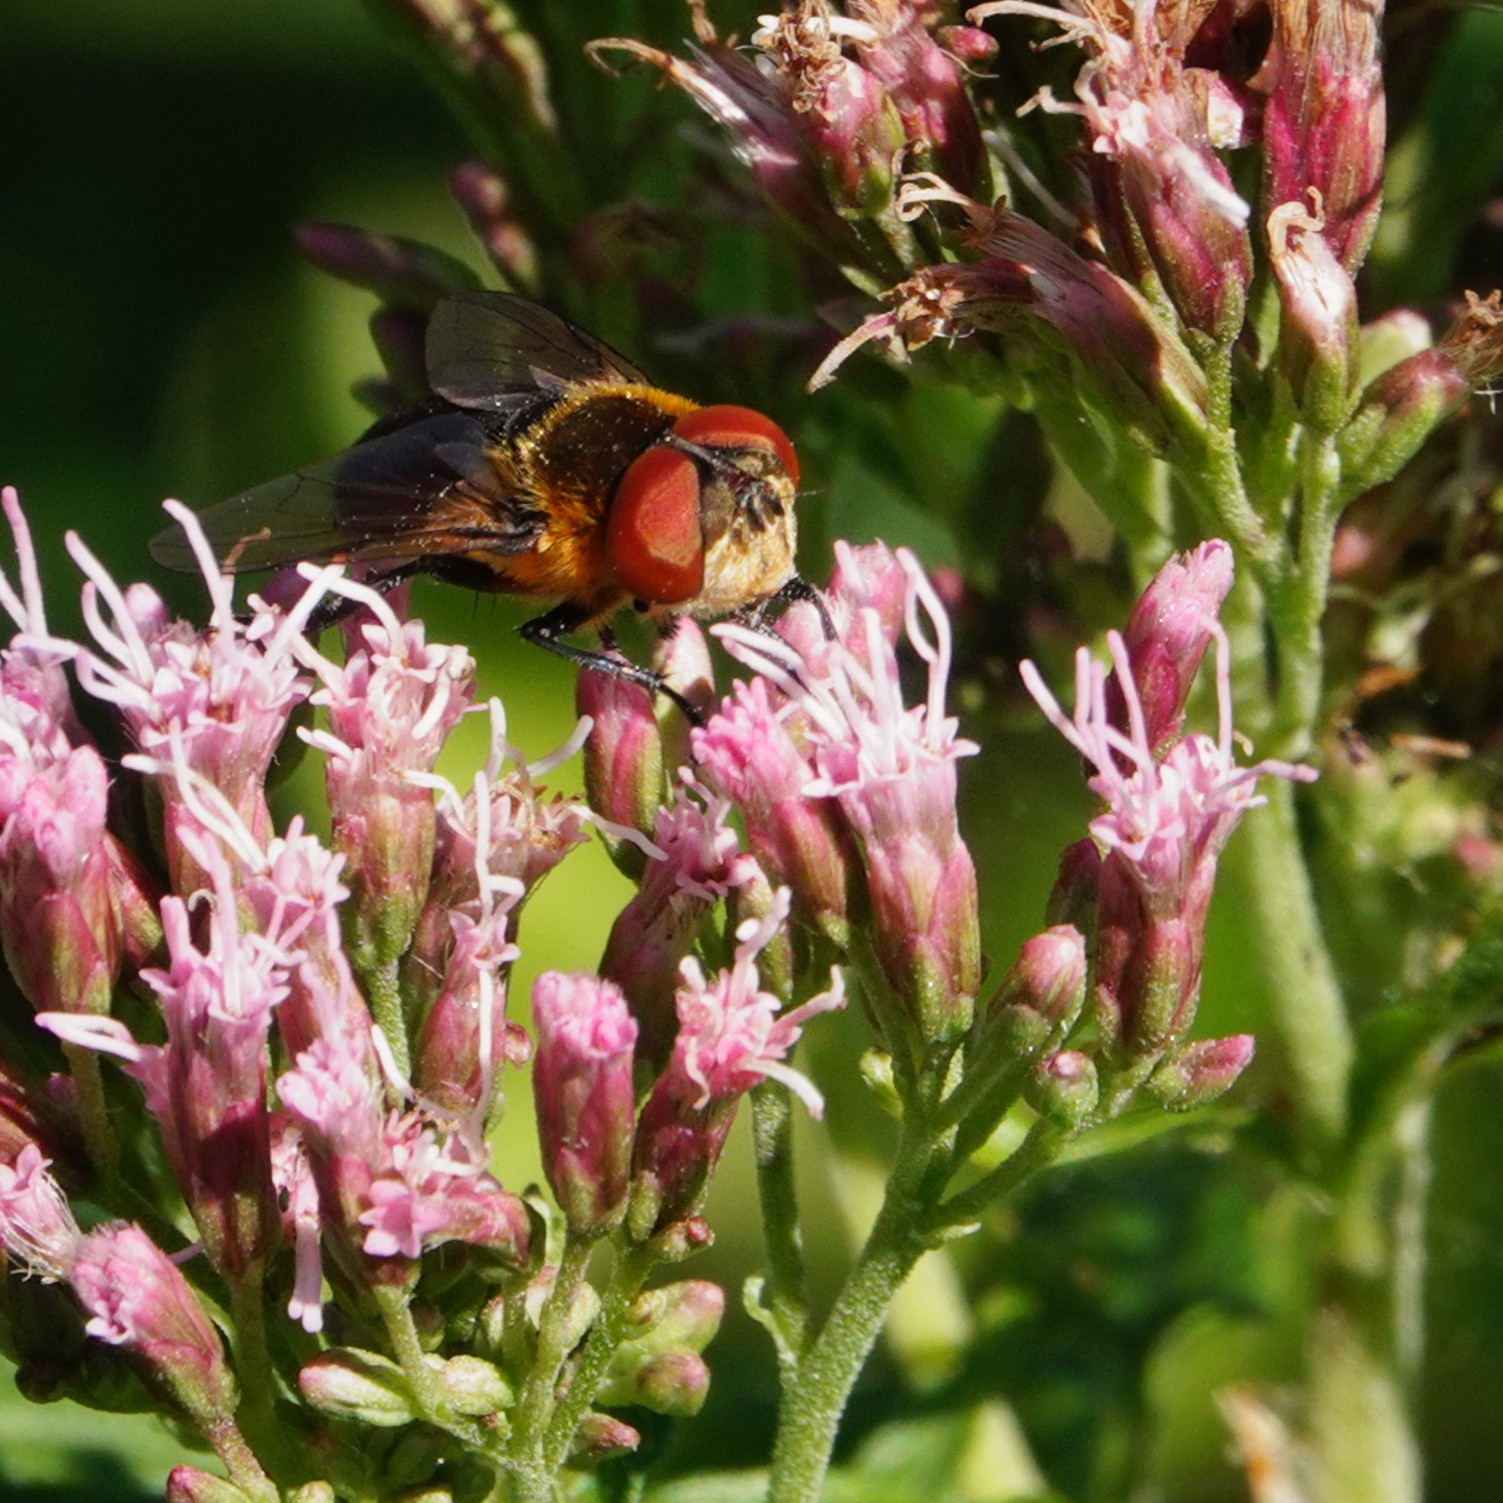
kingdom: Animalia
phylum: Arthropoda
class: Insecta
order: Diptera
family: Tachinidae
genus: Phasia
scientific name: Phasia hemiptera
